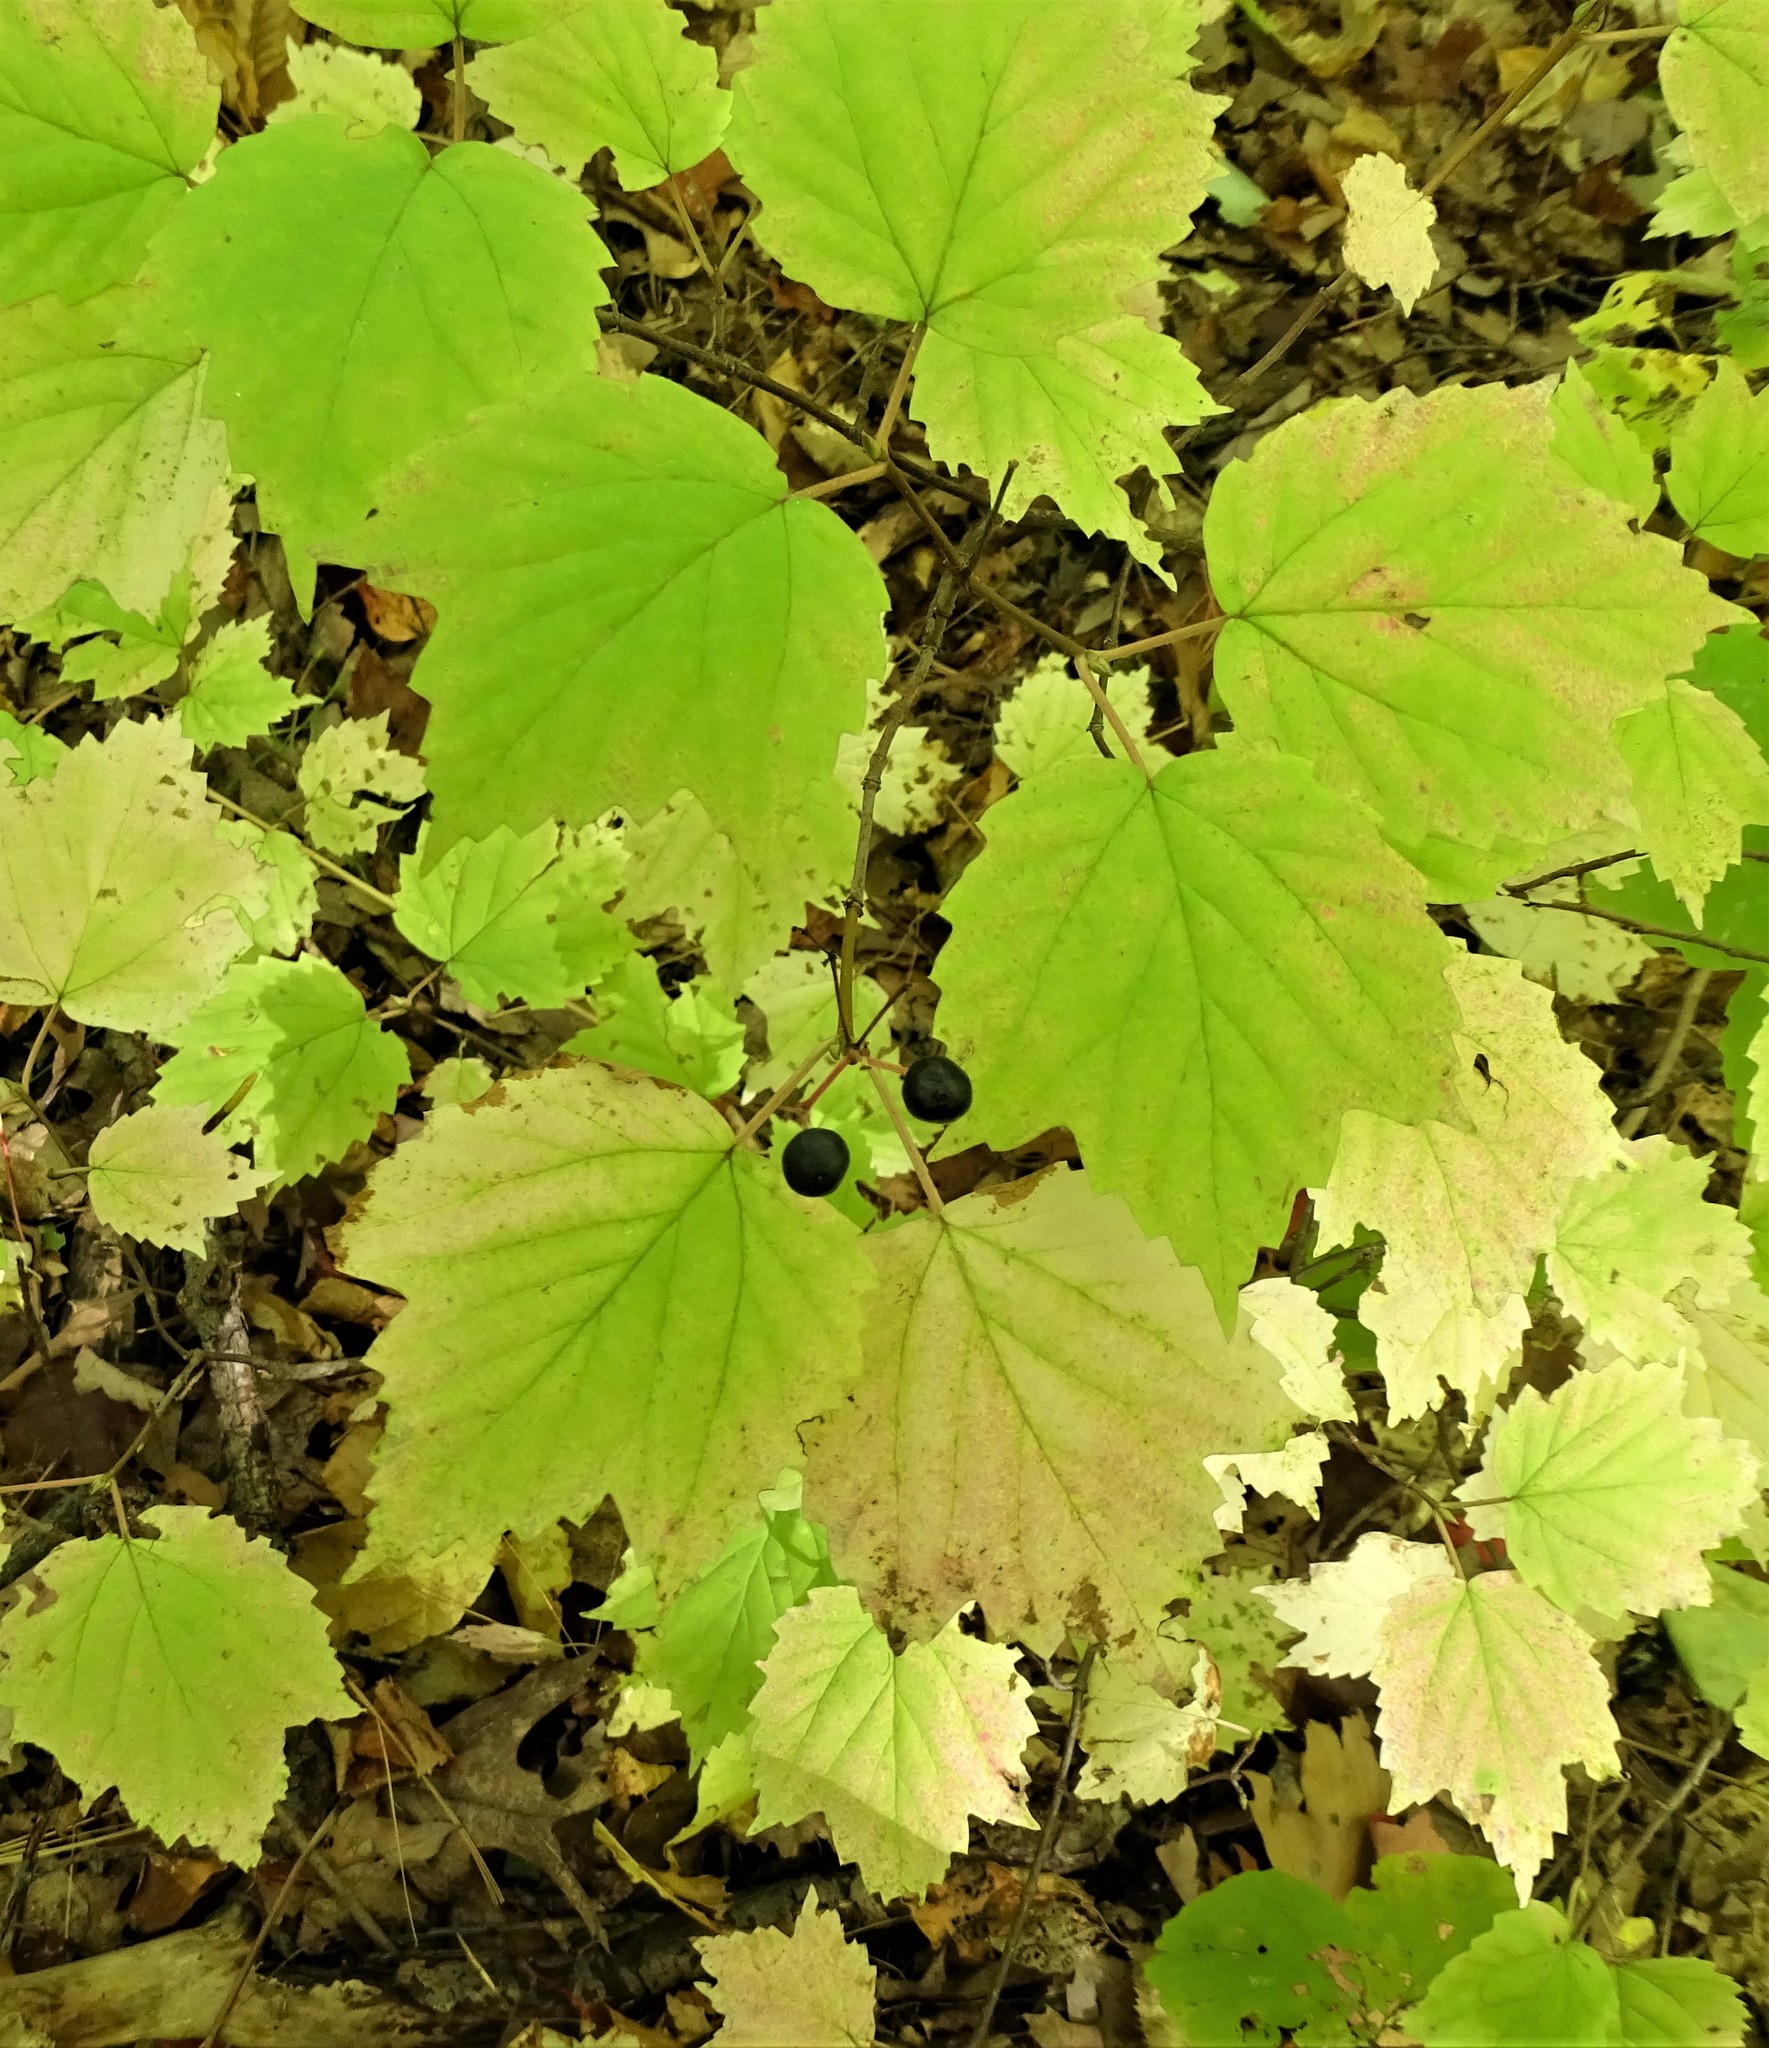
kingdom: Plantae
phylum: Tracheophyta
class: Magnoliopsida
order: Dipsacales
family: Viburnaceae
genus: Viburnum
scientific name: Viburnum acerifolium
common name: Dockmackie
